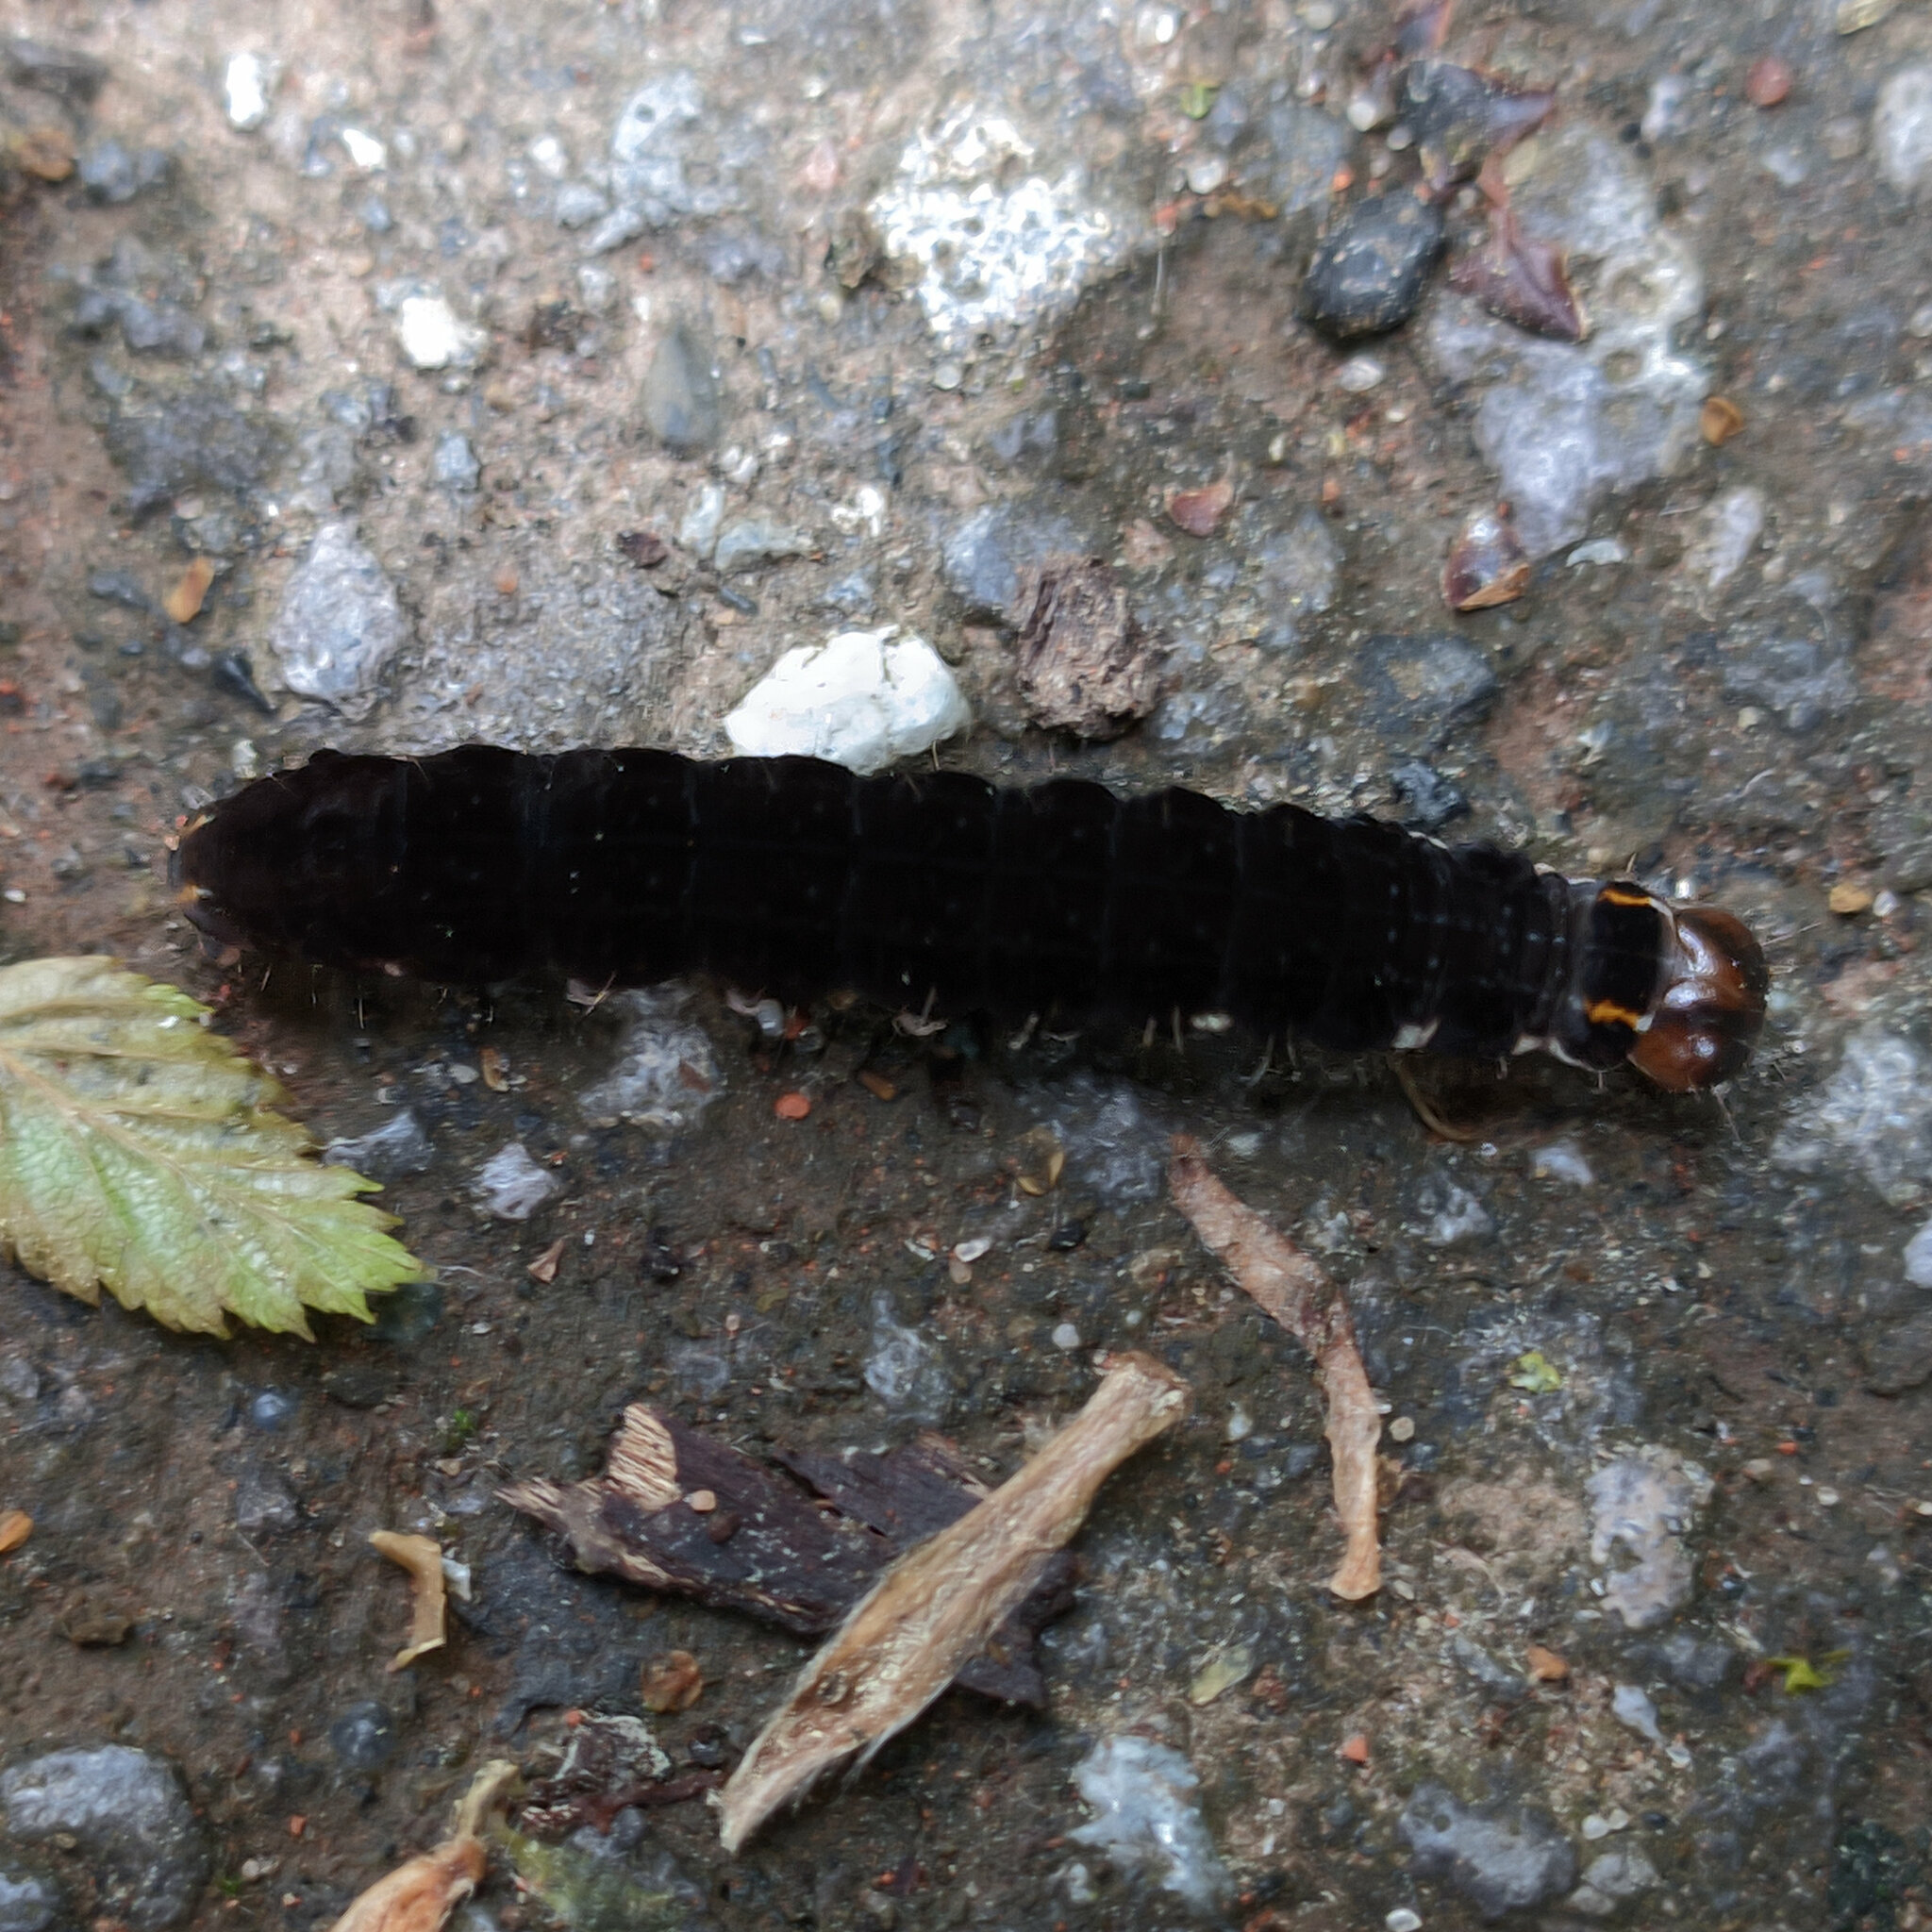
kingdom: Animalia
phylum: Arthropoda
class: Insecta
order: Lepidoptera
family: Noctuidae
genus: Eupsilia
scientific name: Eupsilia transversa
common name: Satellite
